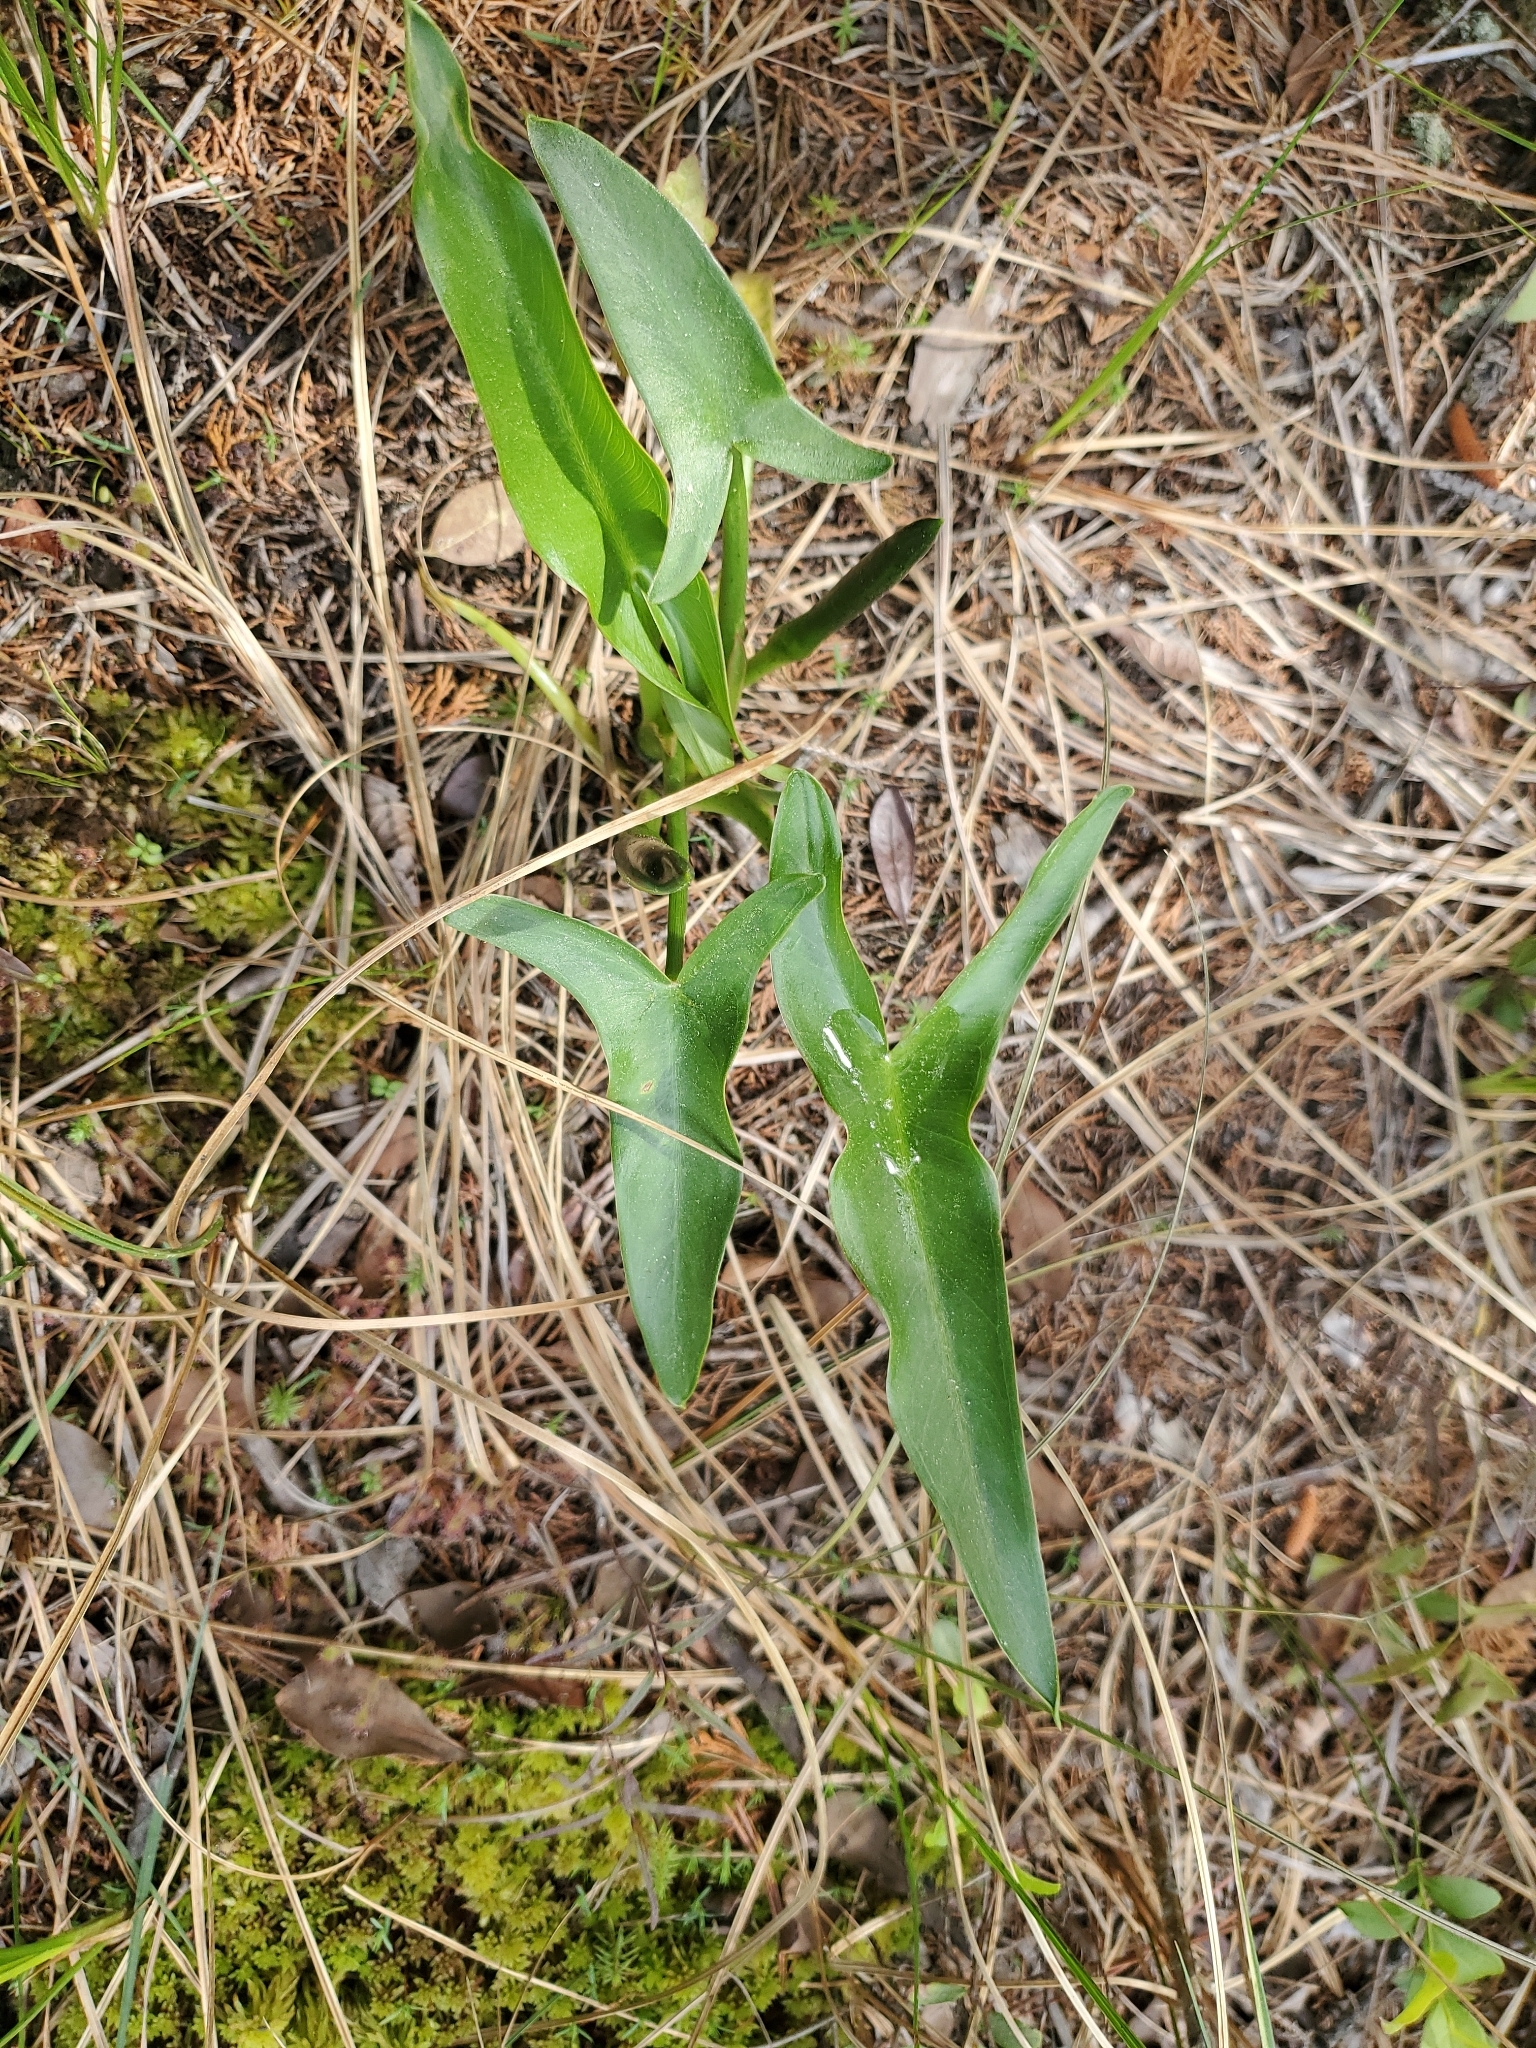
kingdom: Plantae
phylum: Tracheophyta
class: Liliopsida
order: Alismatales
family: Araceae
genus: Peltandra
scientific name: Peltandra virginica
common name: Arrow arum
